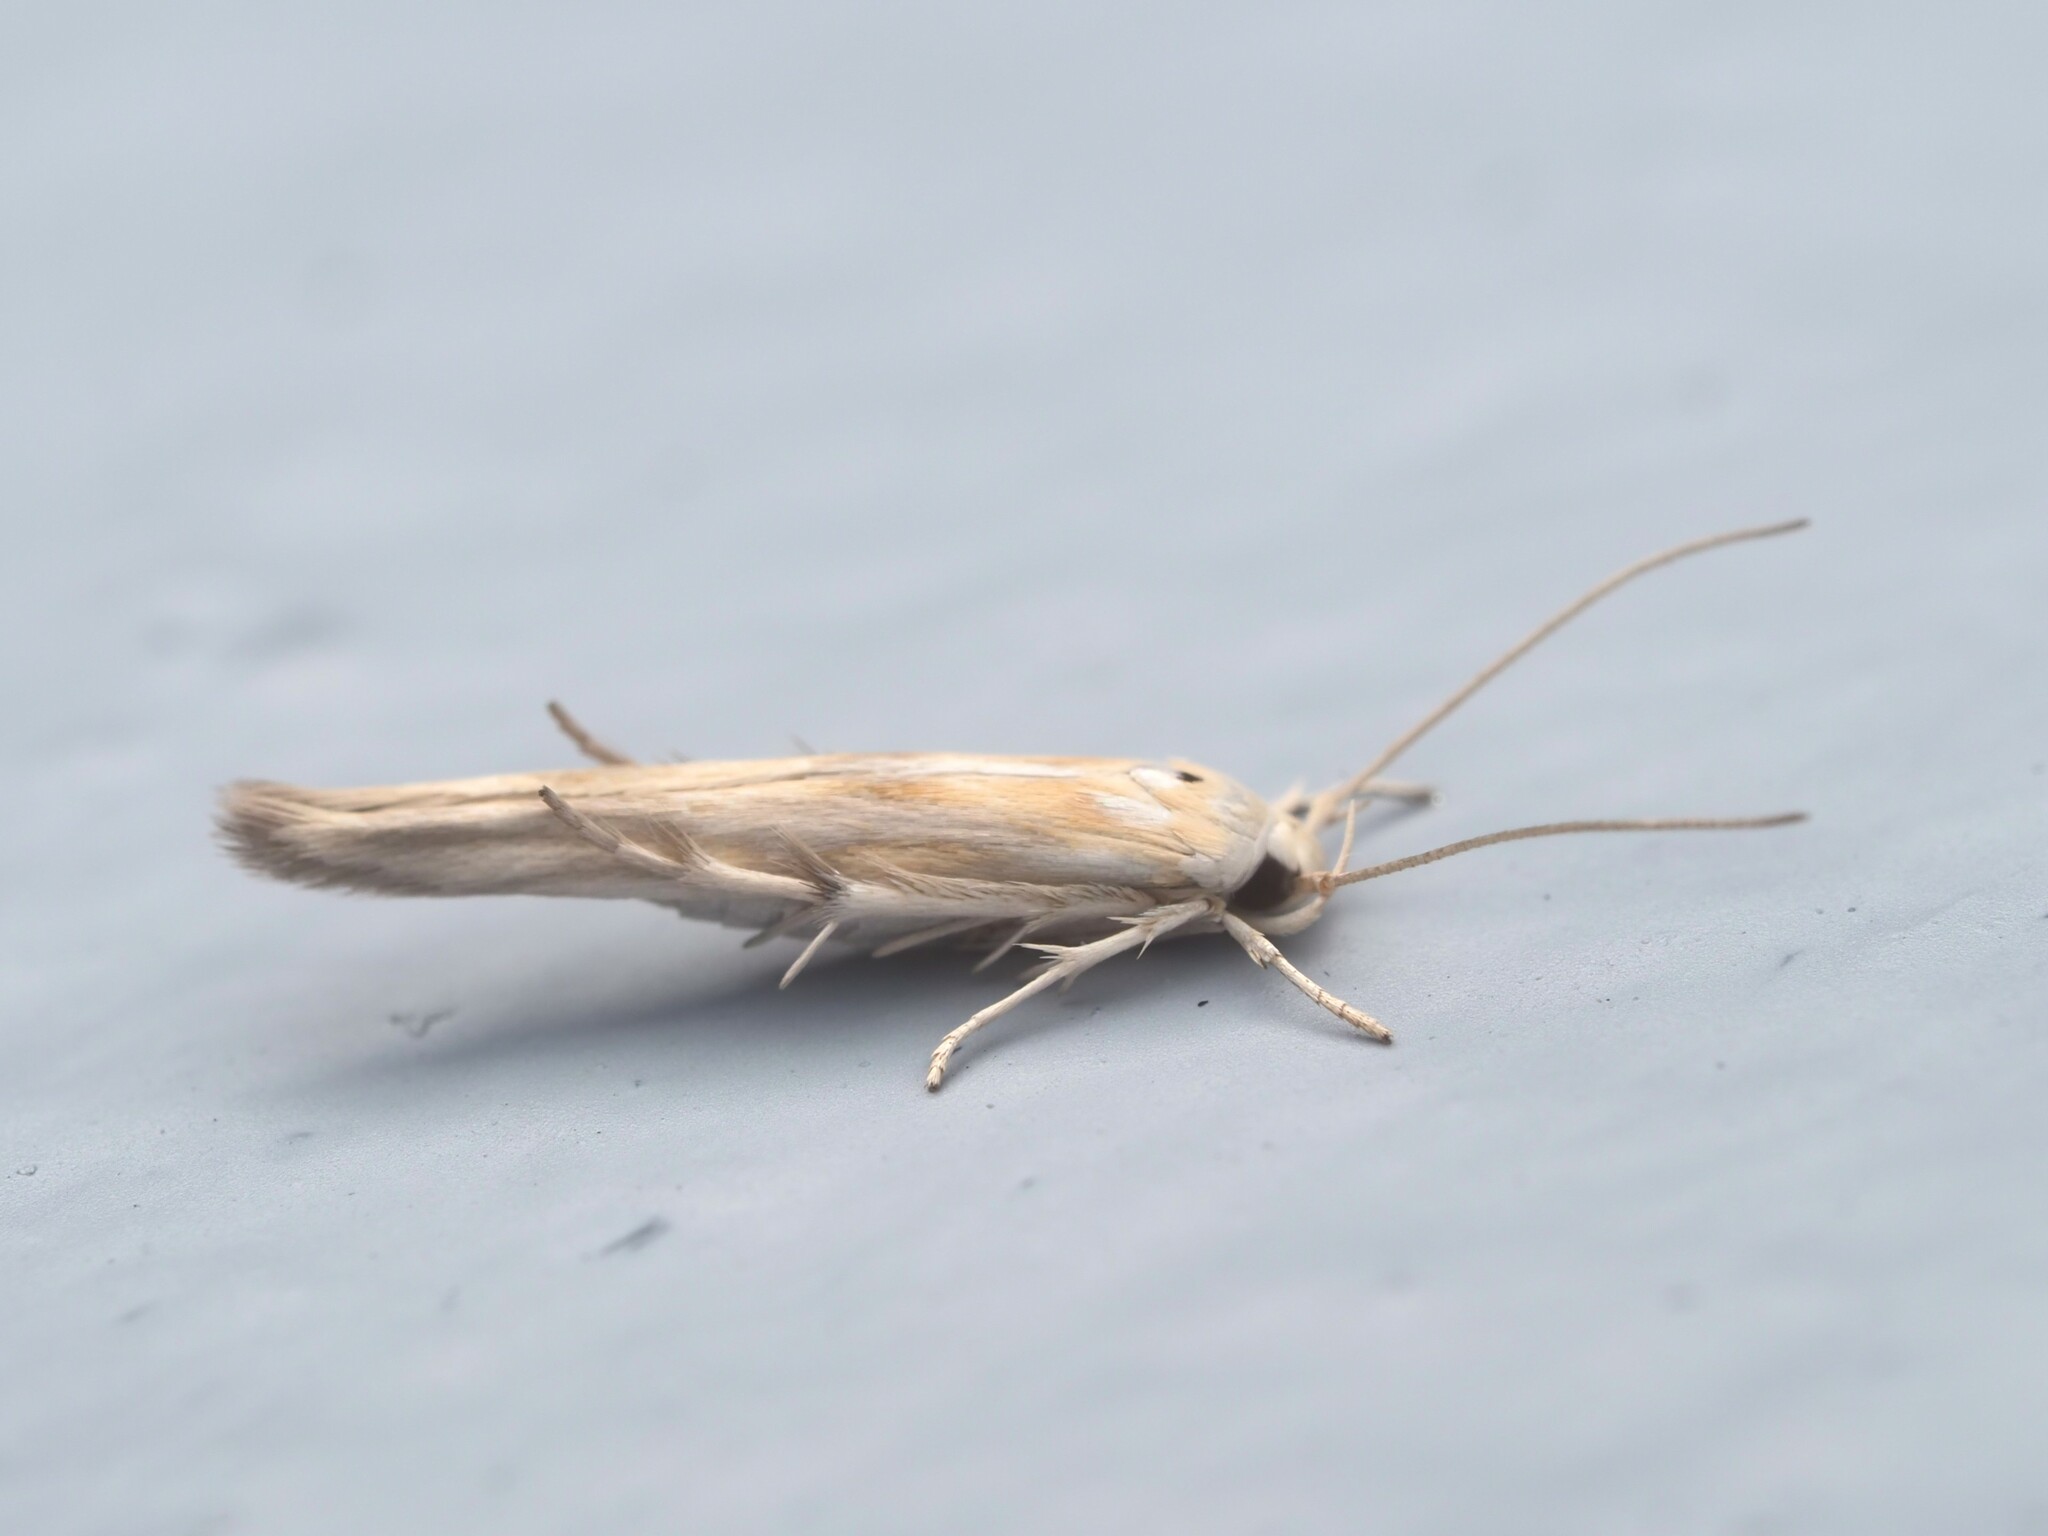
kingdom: Animalia
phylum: Arthropoda
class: Insecta
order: Lepidoptera
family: Stathmopodidae
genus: Stathmopoda
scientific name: Stathmopoda horticola
